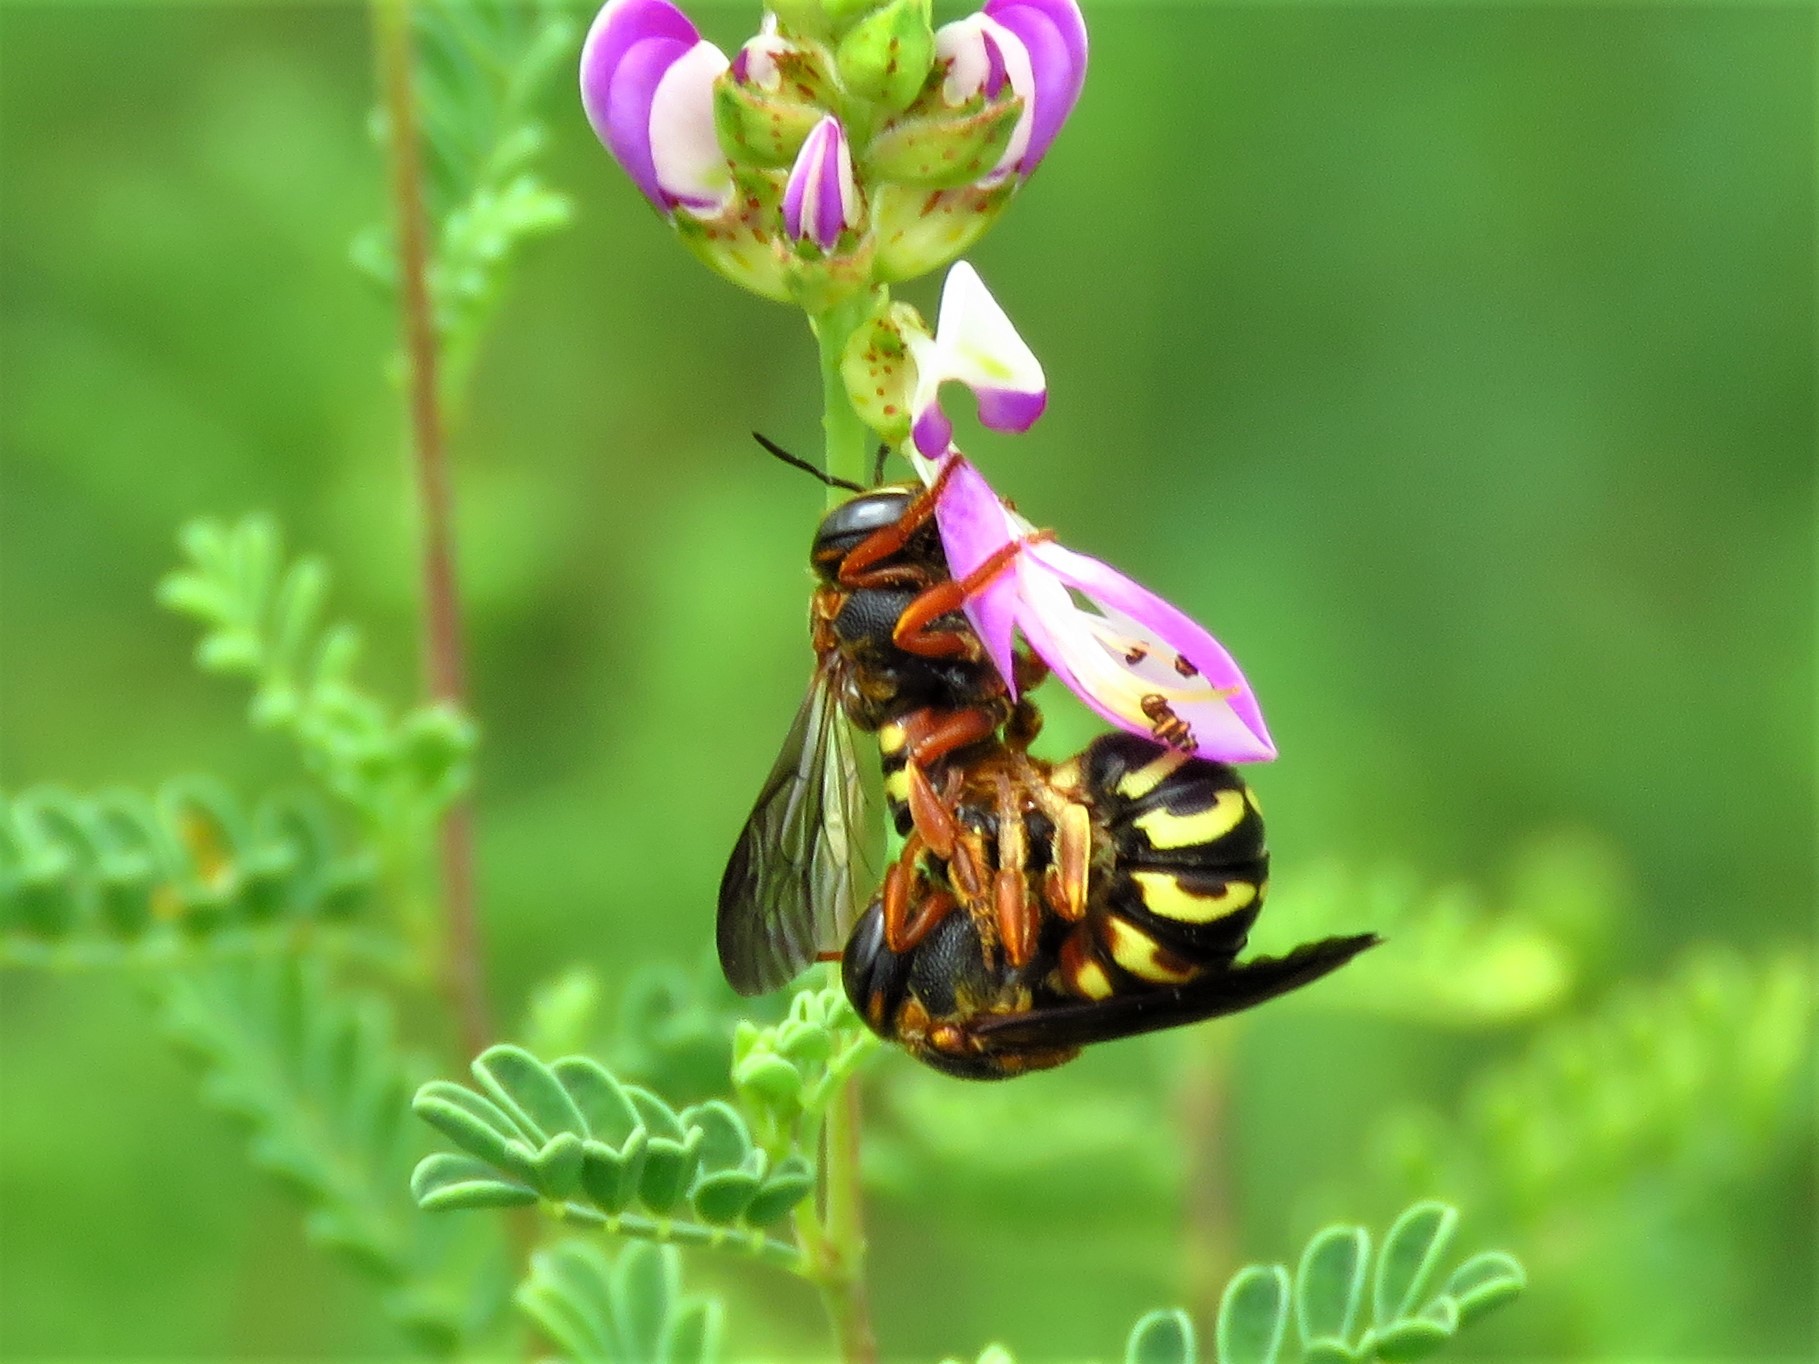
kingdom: Animalia
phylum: Arthropoda
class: Insecta
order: Hymenoptera
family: Megachilidae
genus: Dianthidium
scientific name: Dianthidium curvatum
